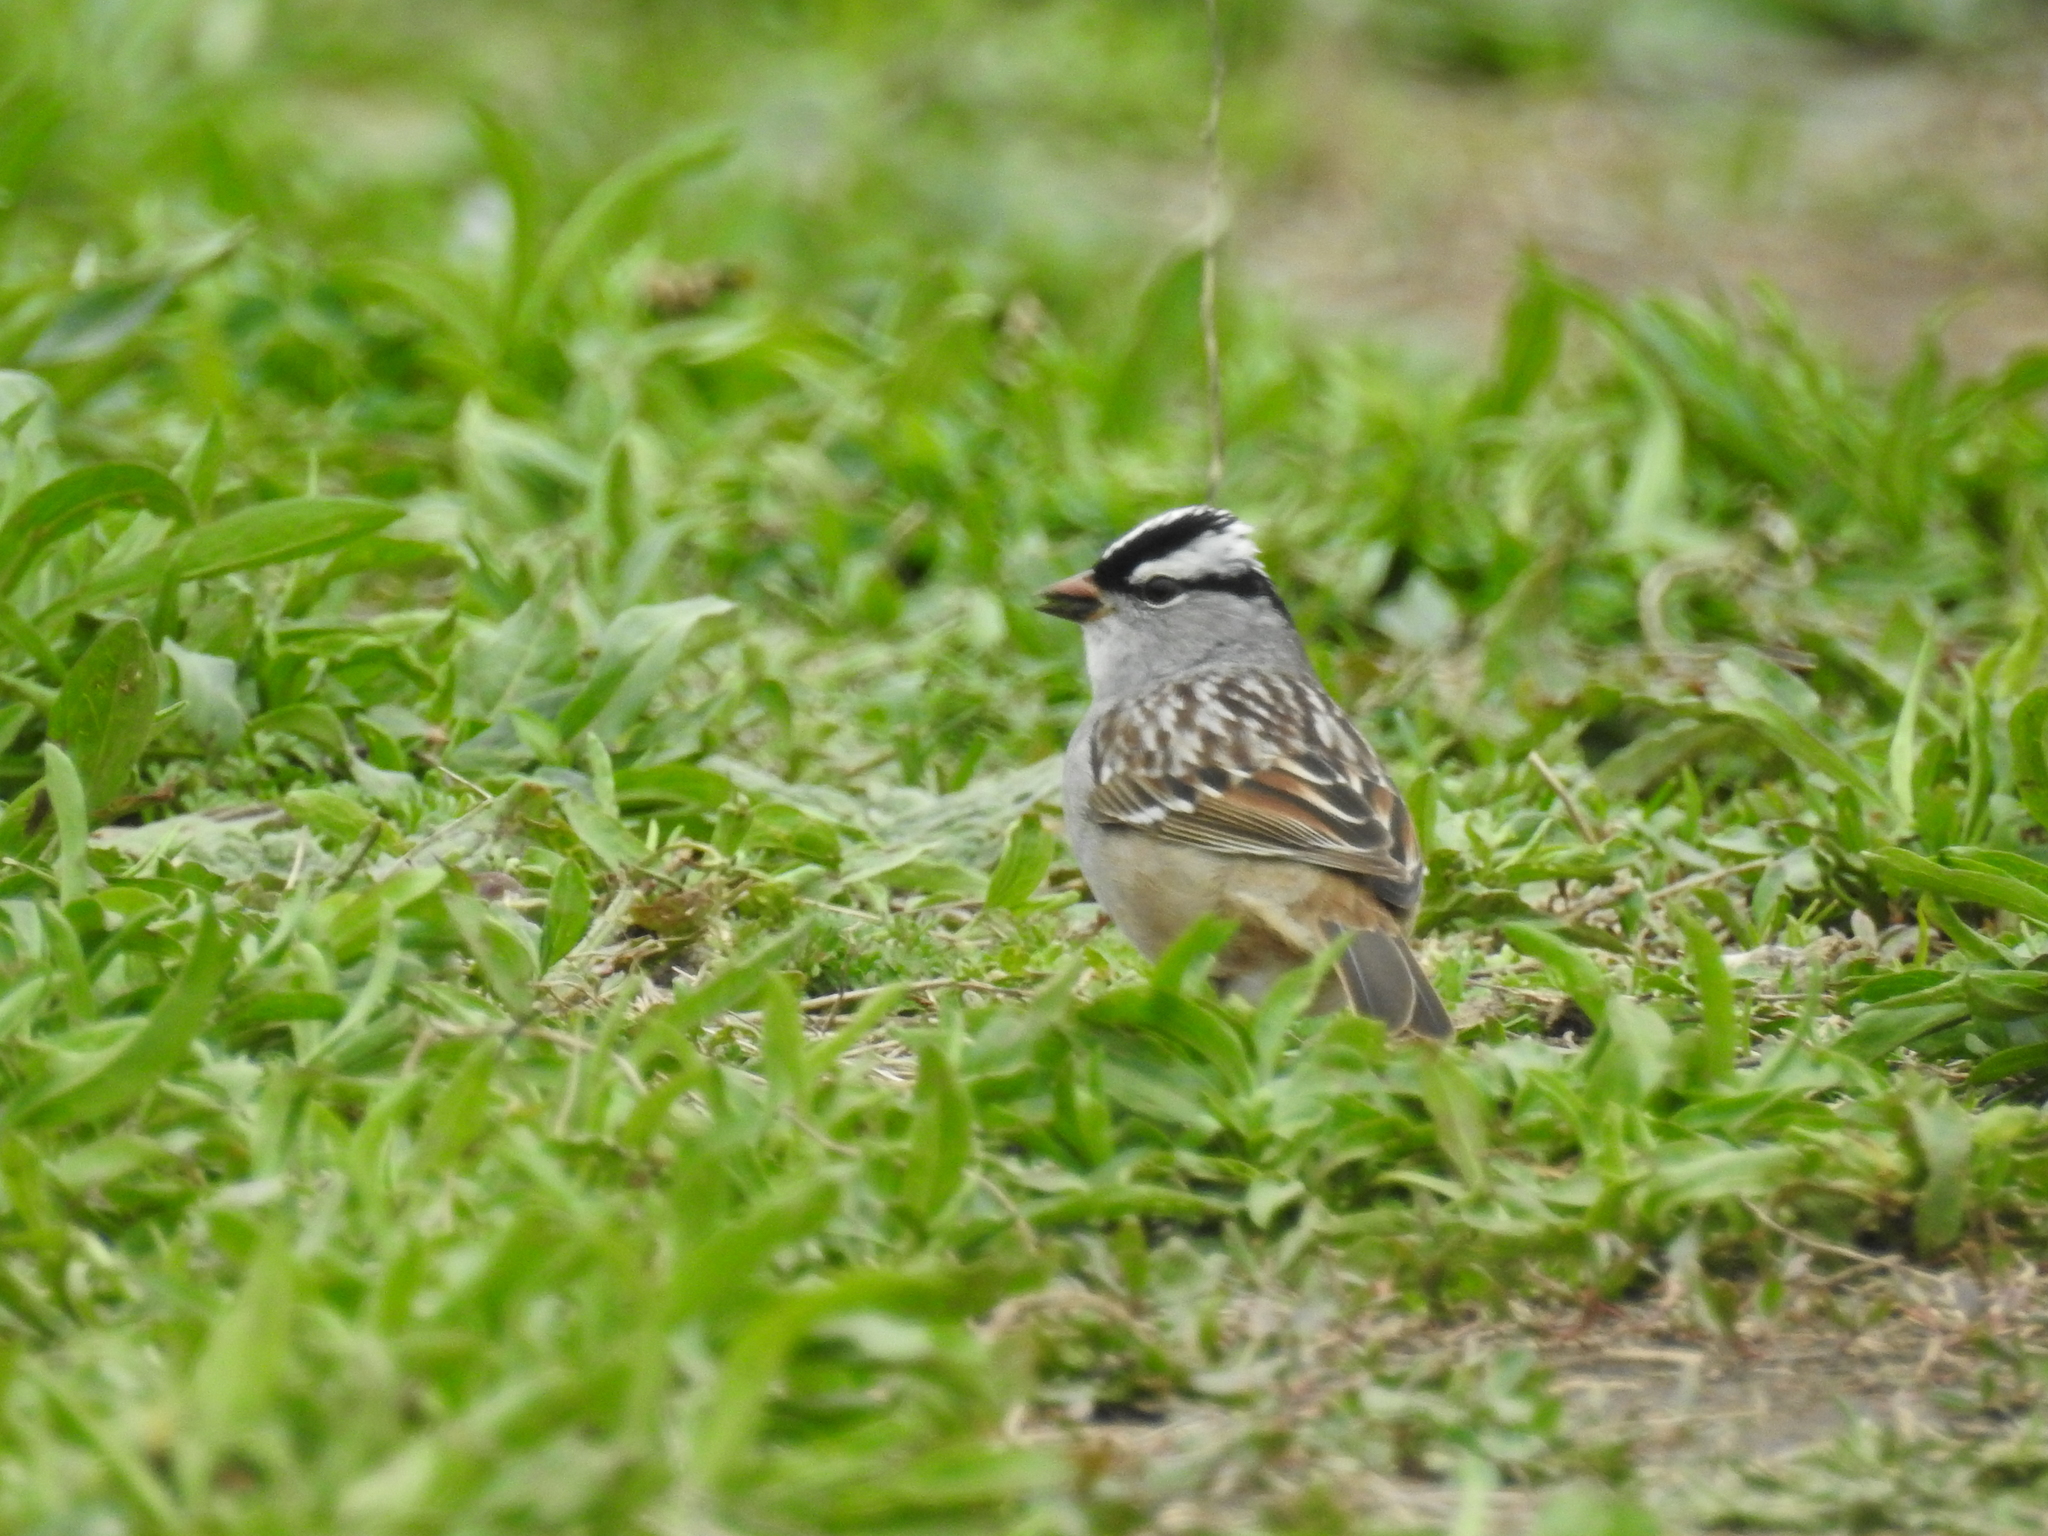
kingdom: Animalia
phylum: Chordata
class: Aves
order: Passeriformes
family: Passerellidae
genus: Zonotrichia
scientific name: Zonotrichia leucophrys
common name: White-crowned sparrow
